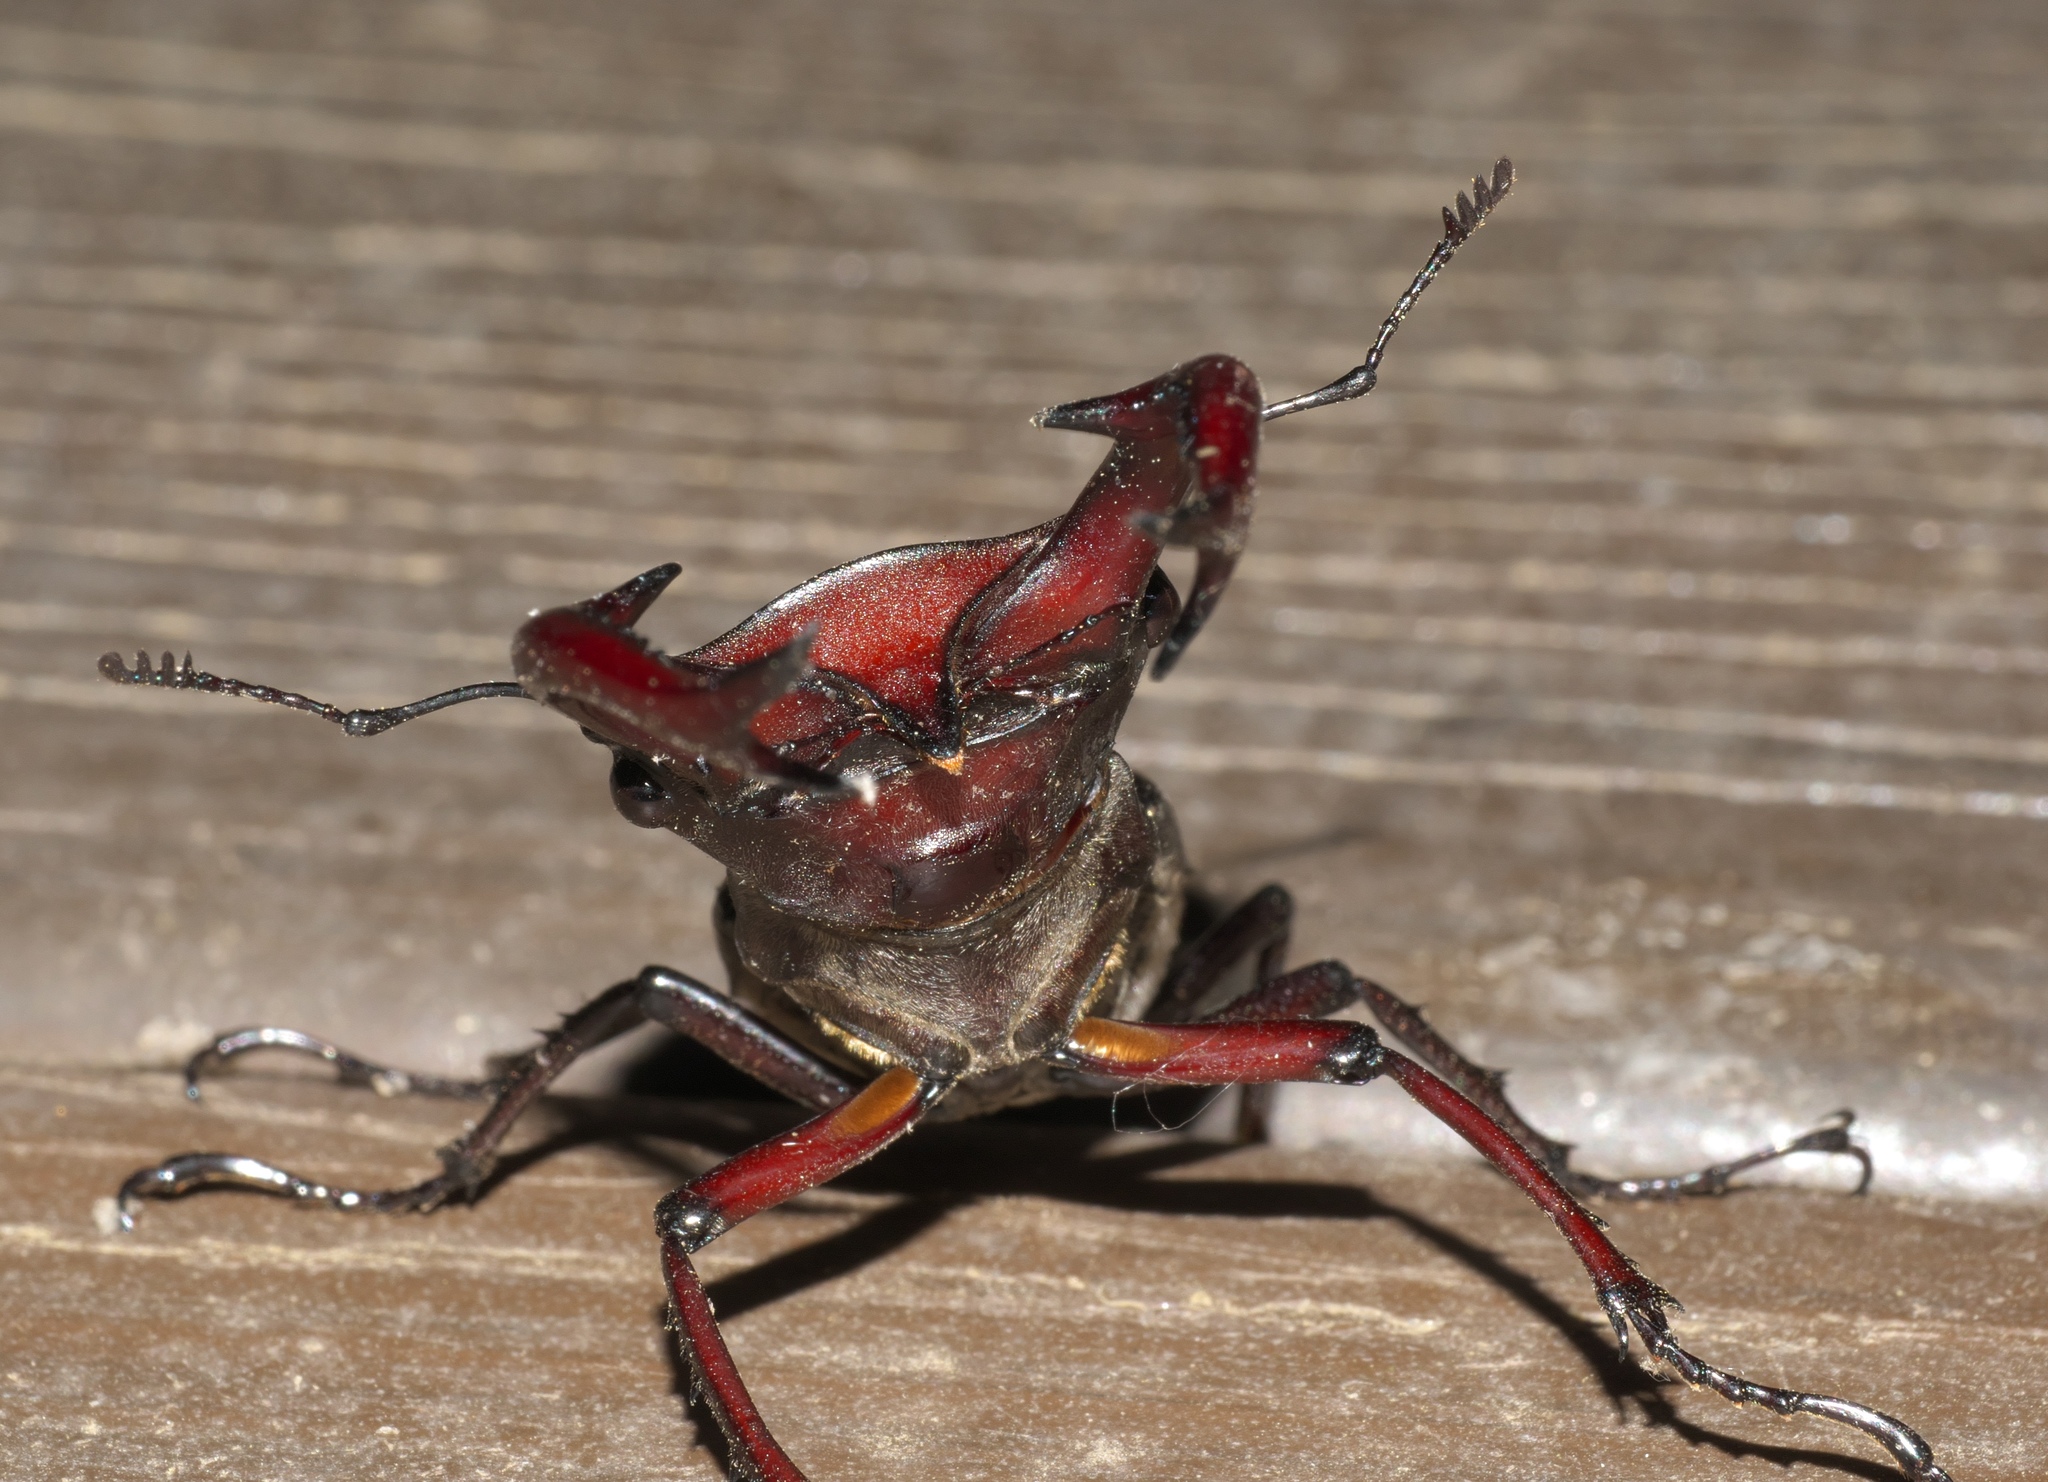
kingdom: Animalia
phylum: Arthropoda
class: Insecta
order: Coleoptera
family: Lucanidae
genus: Lucanus
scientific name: Lucanus elaphus
